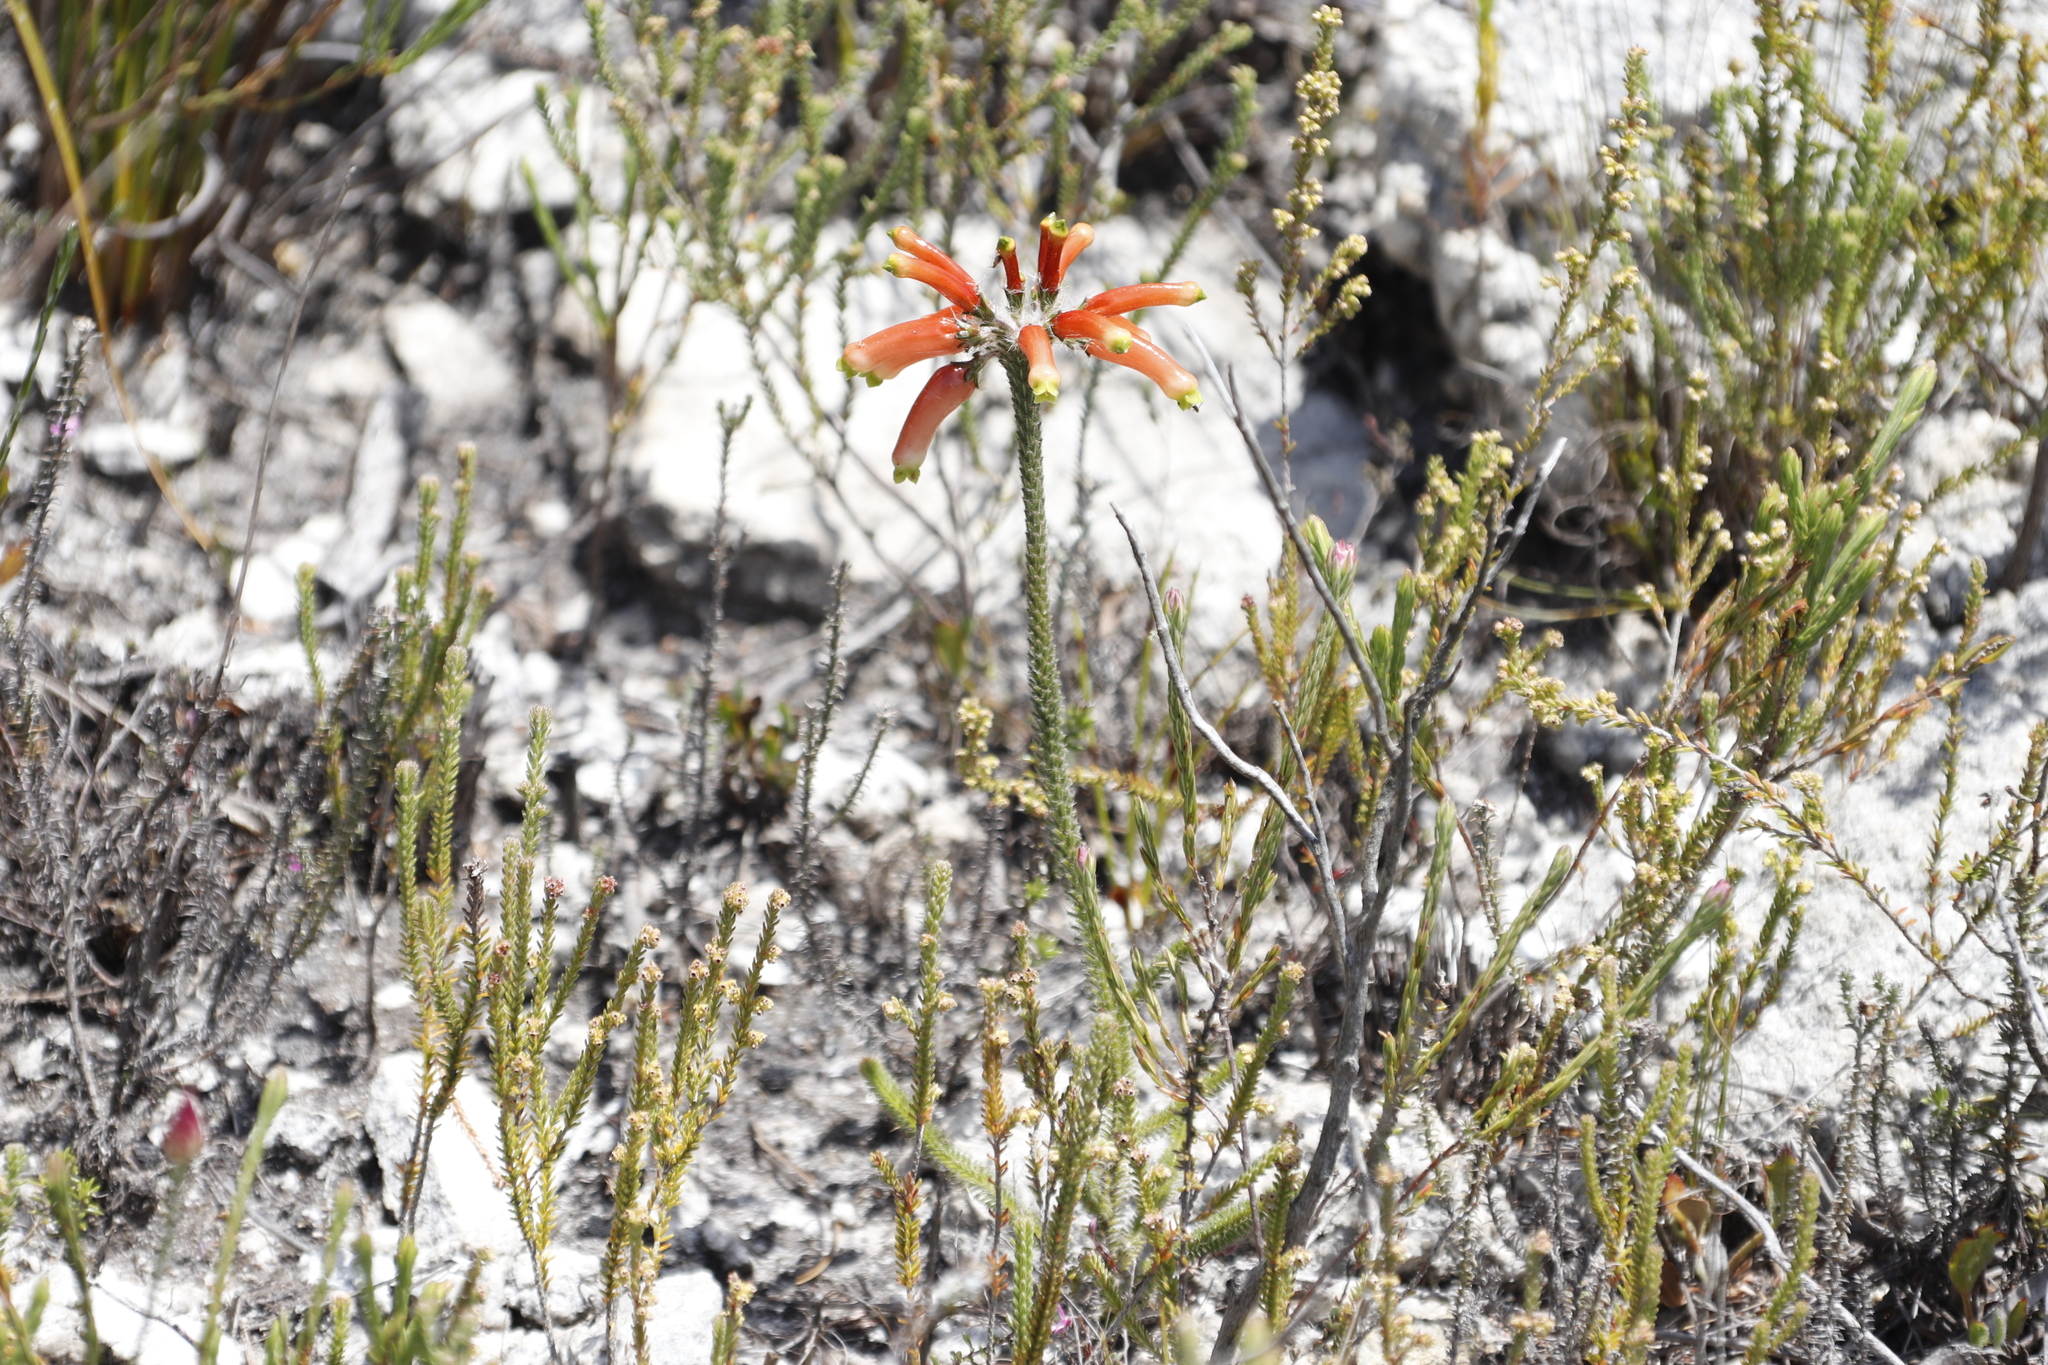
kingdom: Plantae
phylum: Tracheophyta
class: Magnoliopsida
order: Ericales
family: Ericaceae
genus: Erica
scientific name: Erica massonii
